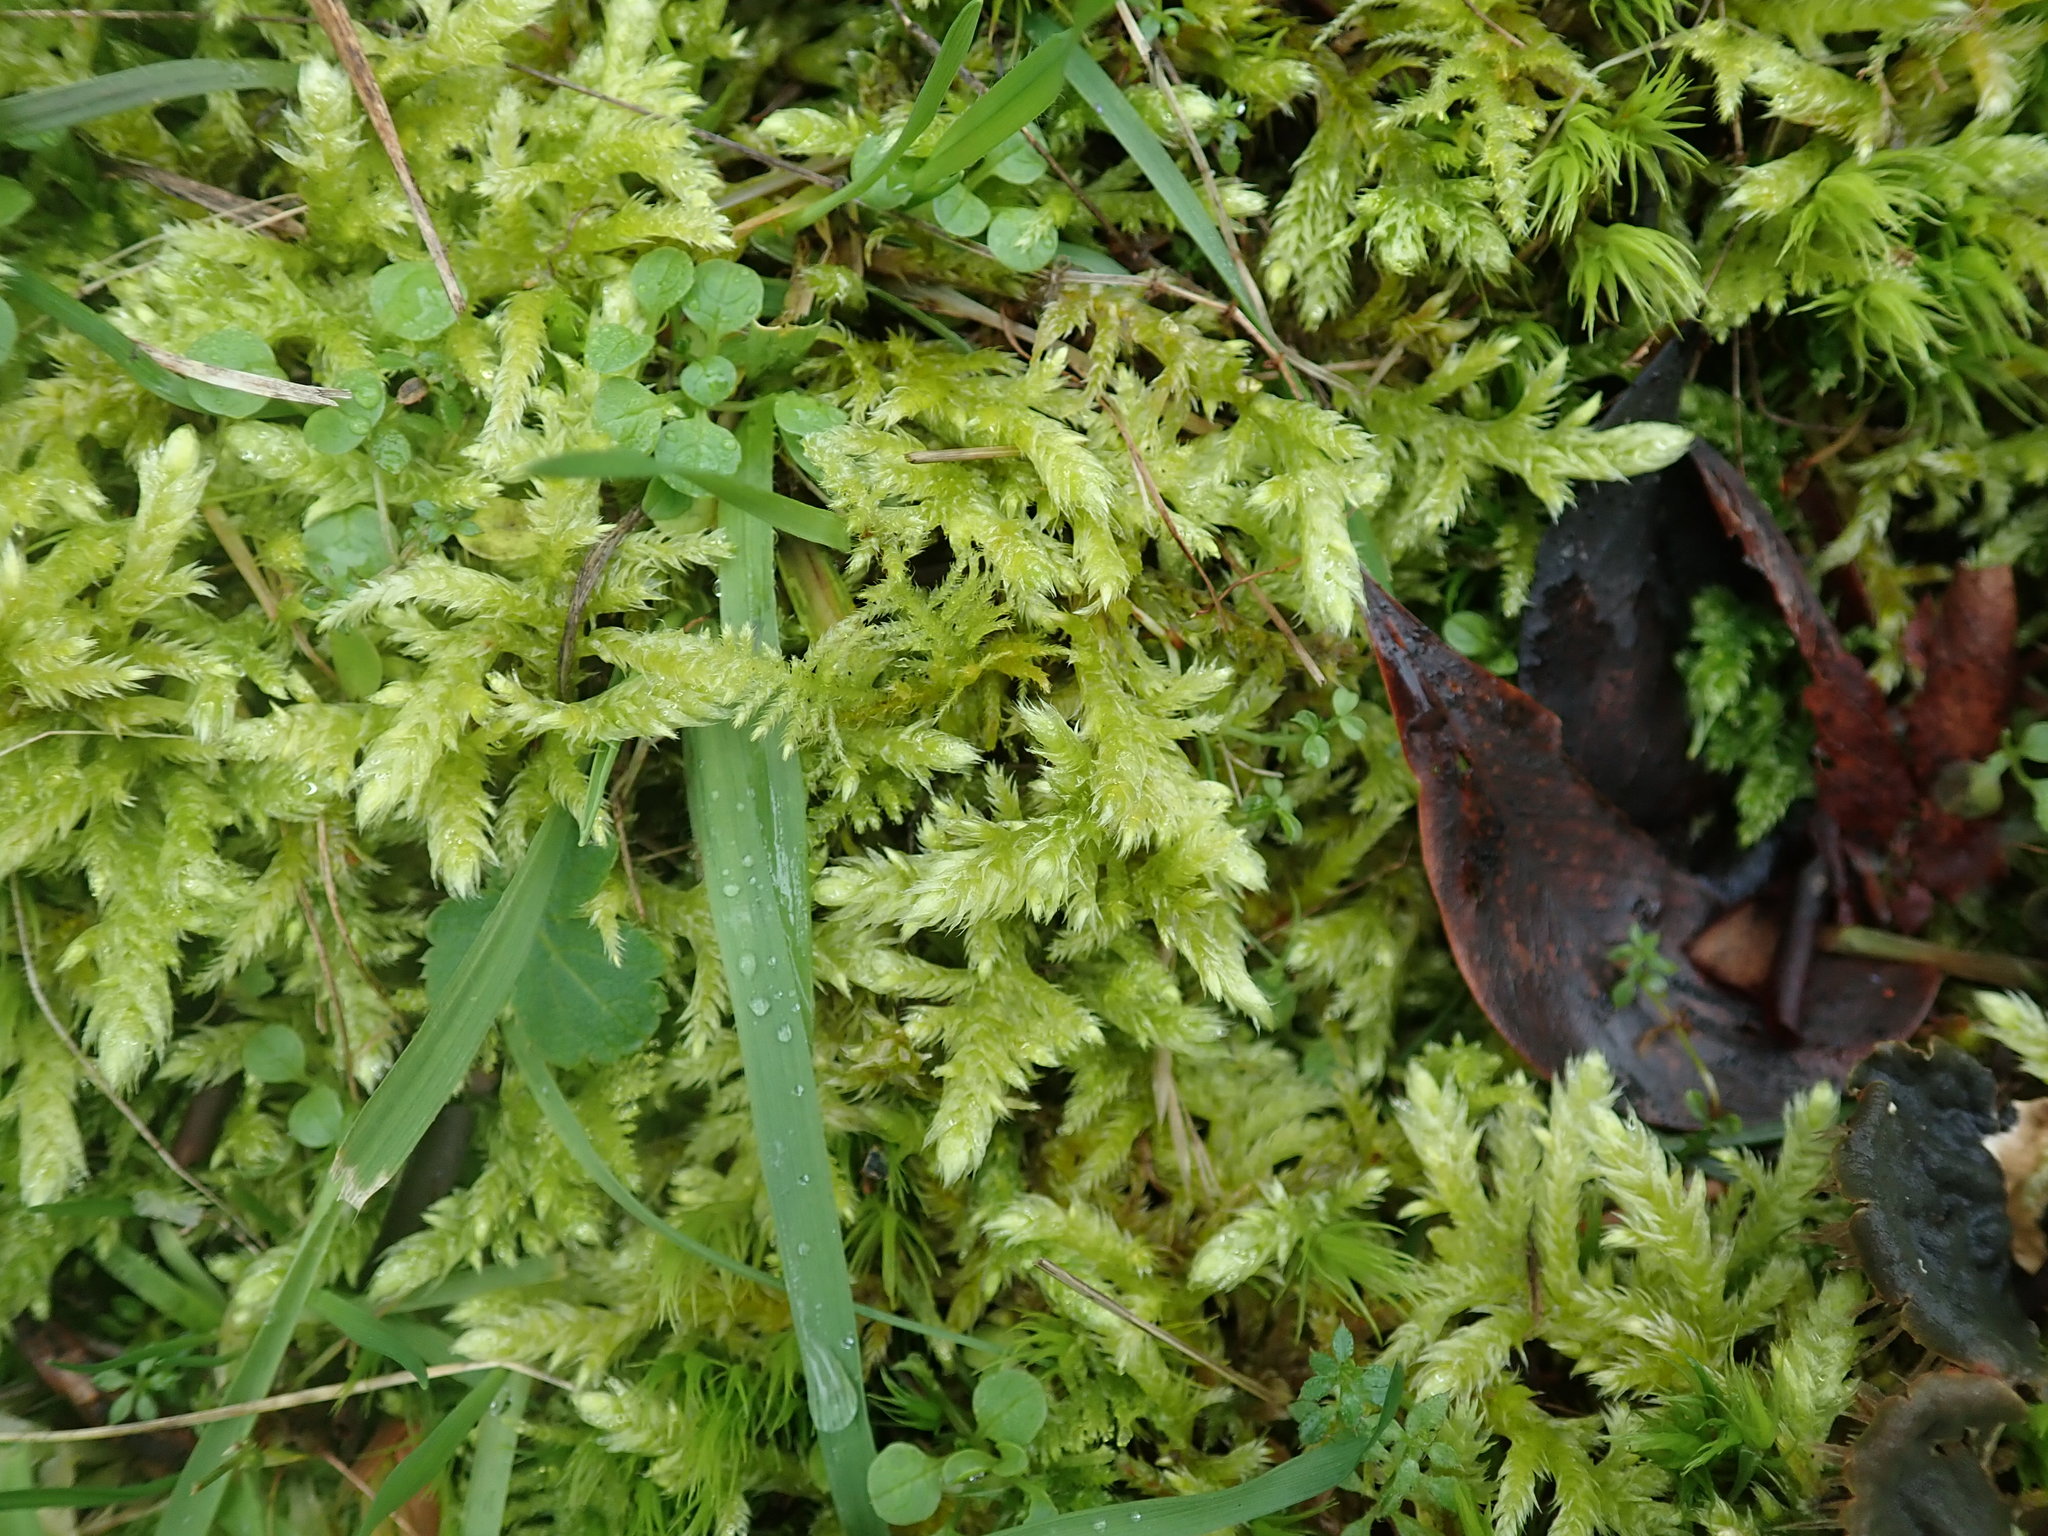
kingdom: Plantae
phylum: Bryophyta
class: Bryopsida
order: Hypnales
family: Brachytheciaceae
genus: Homalothecium
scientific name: Homalothecium megaptilum
